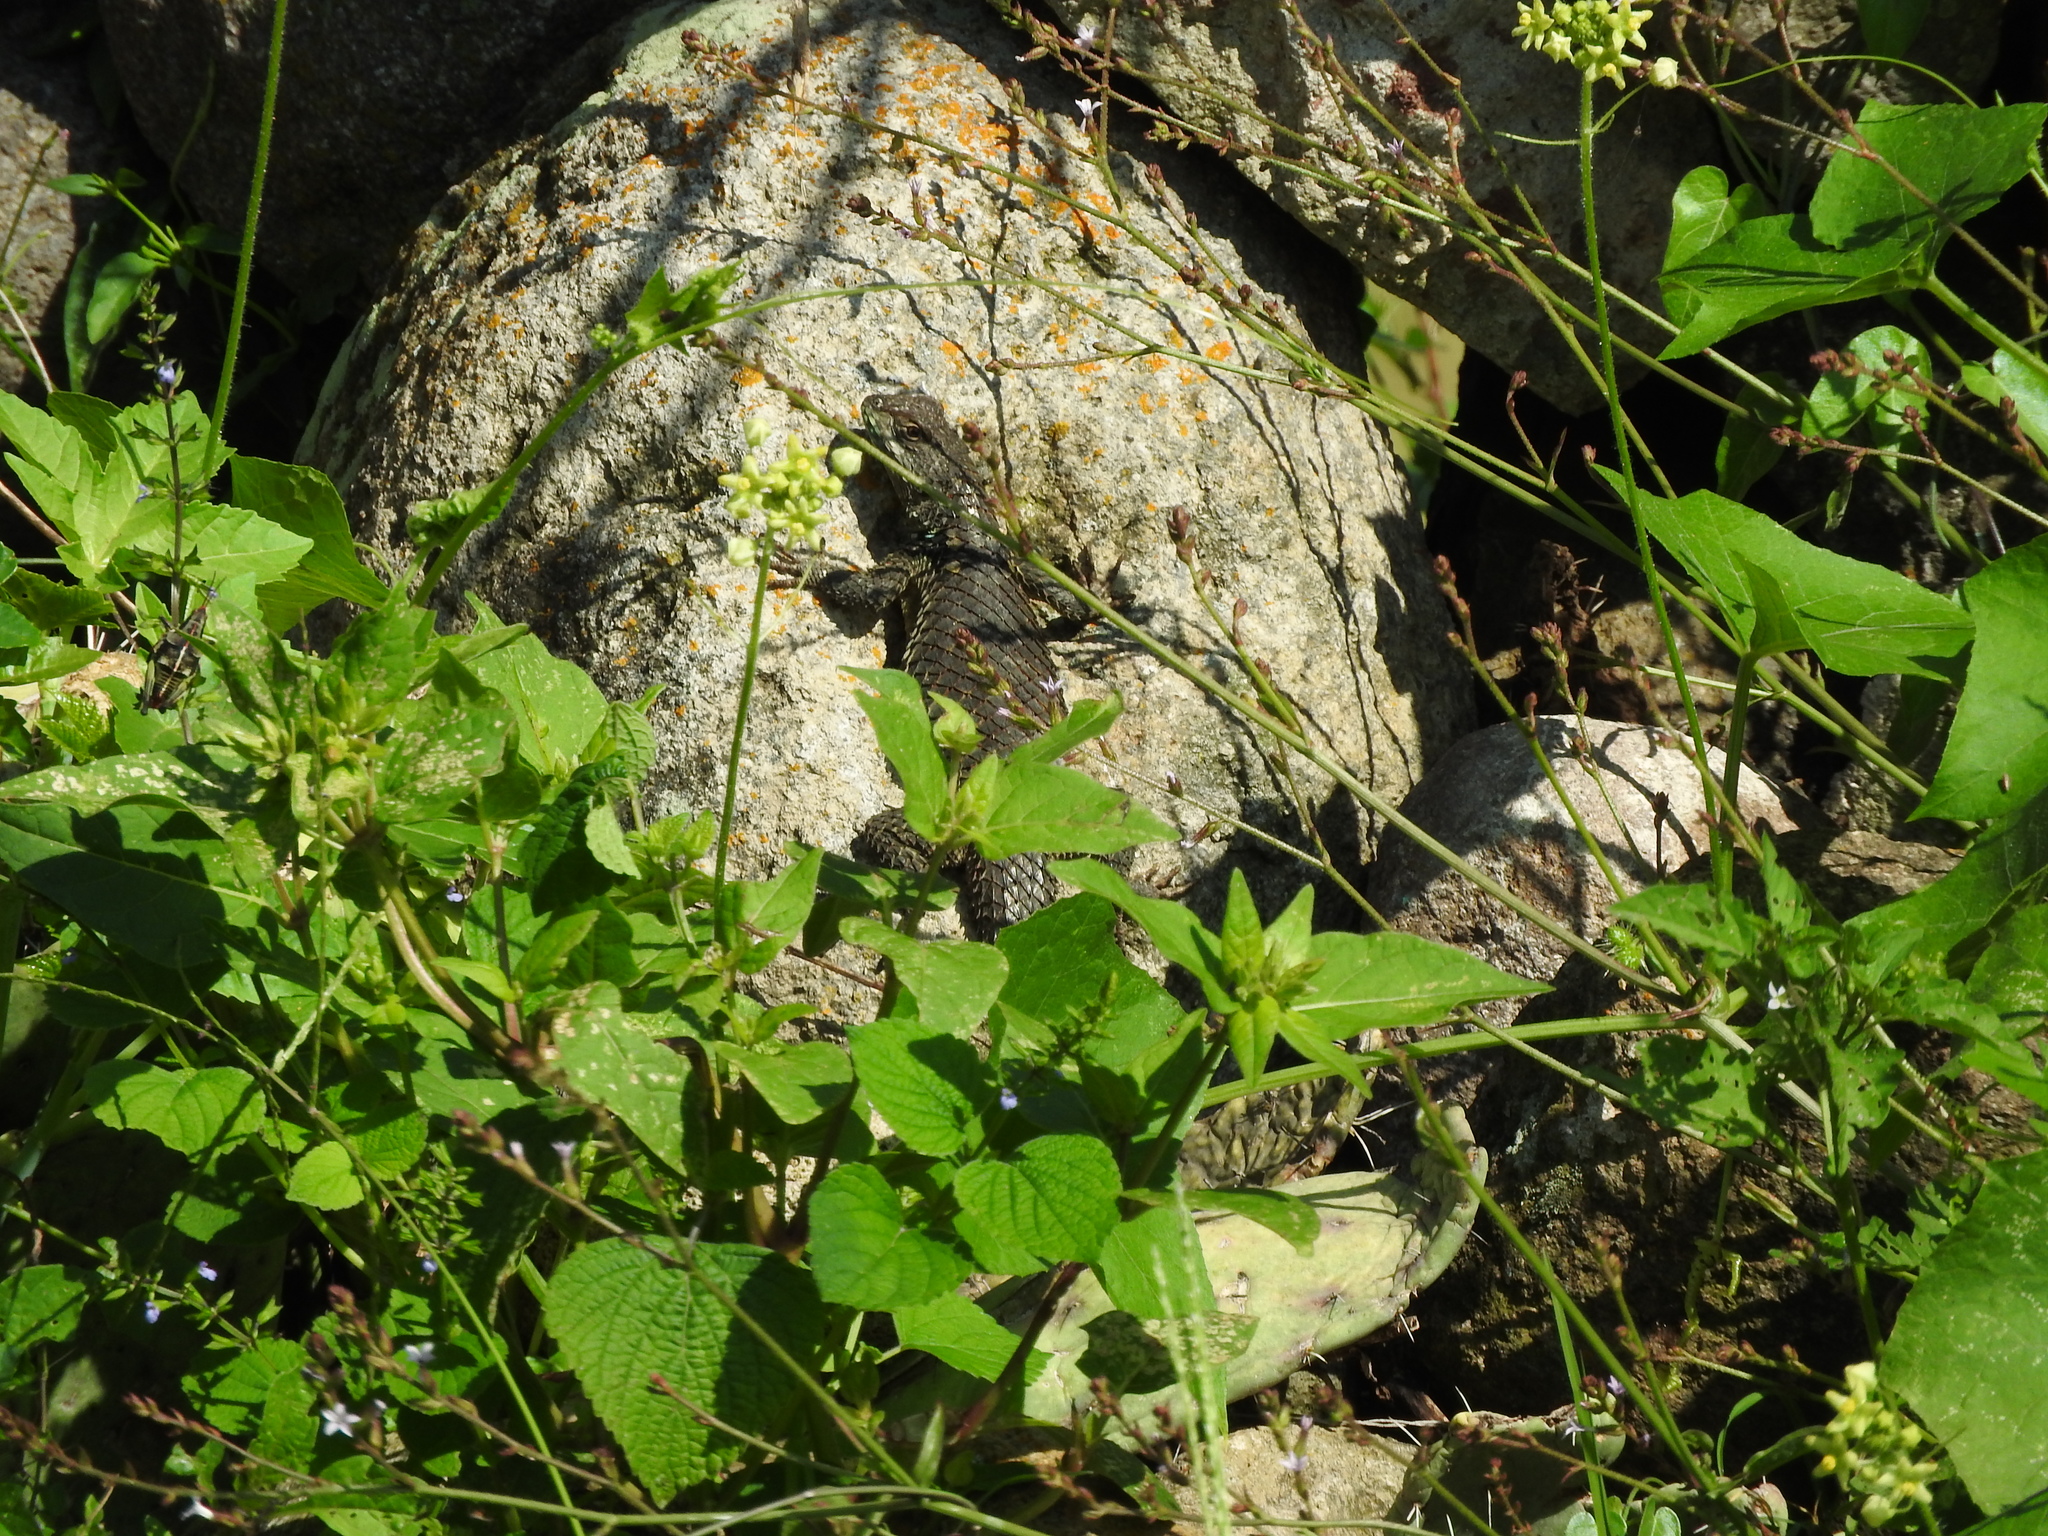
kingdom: Animalia
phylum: Chordata
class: Squamata
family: Phrynosomatidae
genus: Sceloporus
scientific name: Sceloporus torquatus
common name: Central plateau torquate lizard [melanogaster]
